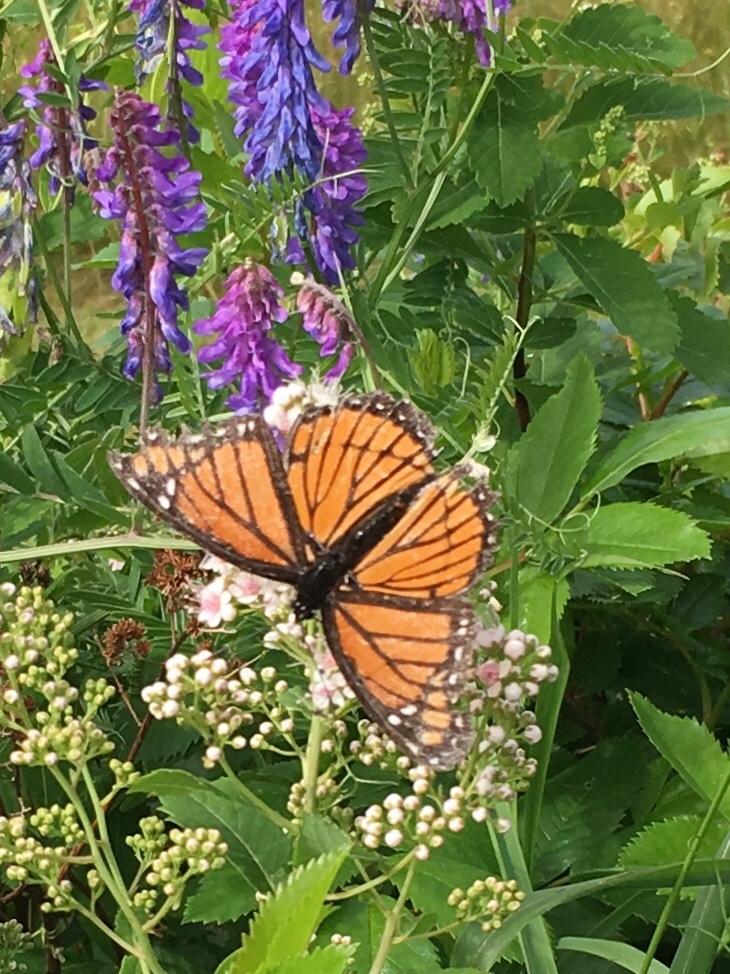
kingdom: Animalia
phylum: Arthropoda
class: Insecta
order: Lepidoptera
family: Nymphalidae
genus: Limenitis
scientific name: Limenitis archippus
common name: Viceroy
